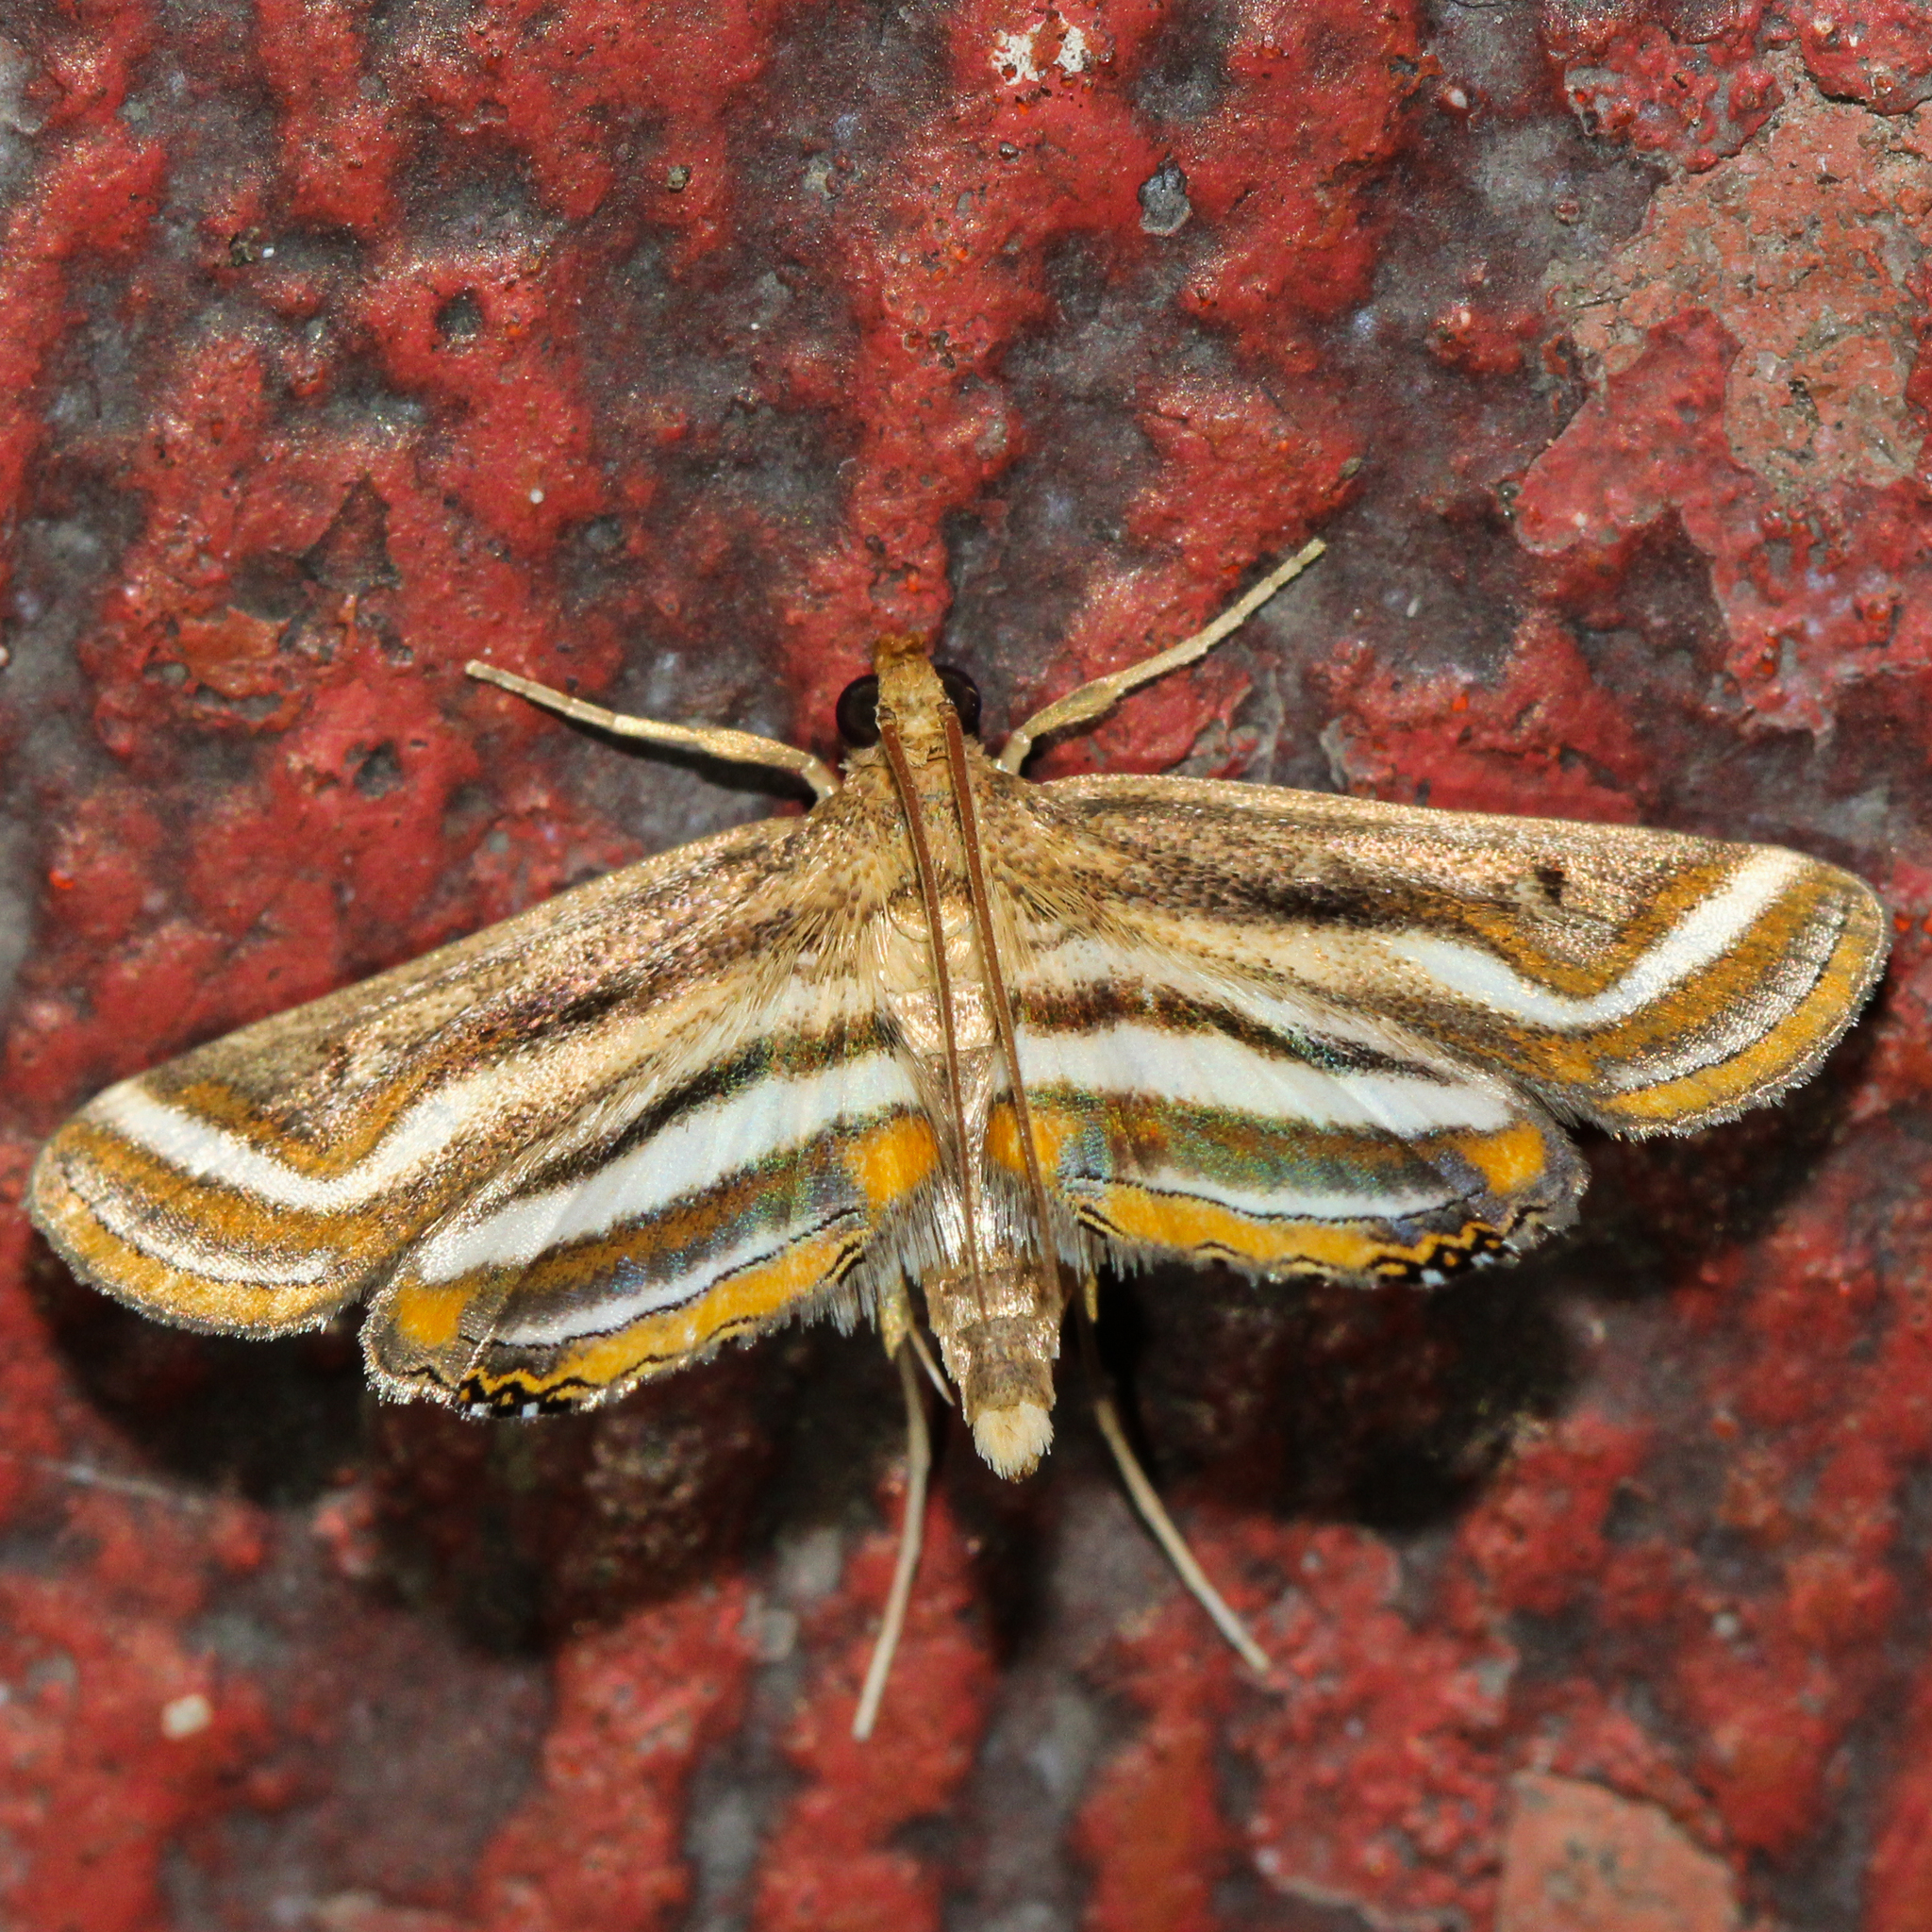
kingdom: Animalia
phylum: Arthropoda
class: Insecta
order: Lepidoptera
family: Crambidae
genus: Parapoynx
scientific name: Parapoynx seminealis
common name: Floating-heart waterlily leafcutter
